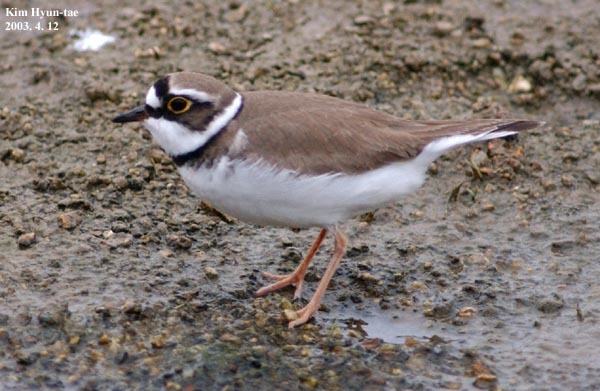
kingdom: Animalia
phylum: Chordata
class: Aves
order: Charadriiformes
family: Charadriidae
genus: Charadrius
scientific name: Charadrius dubius
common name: Little ringed plover
